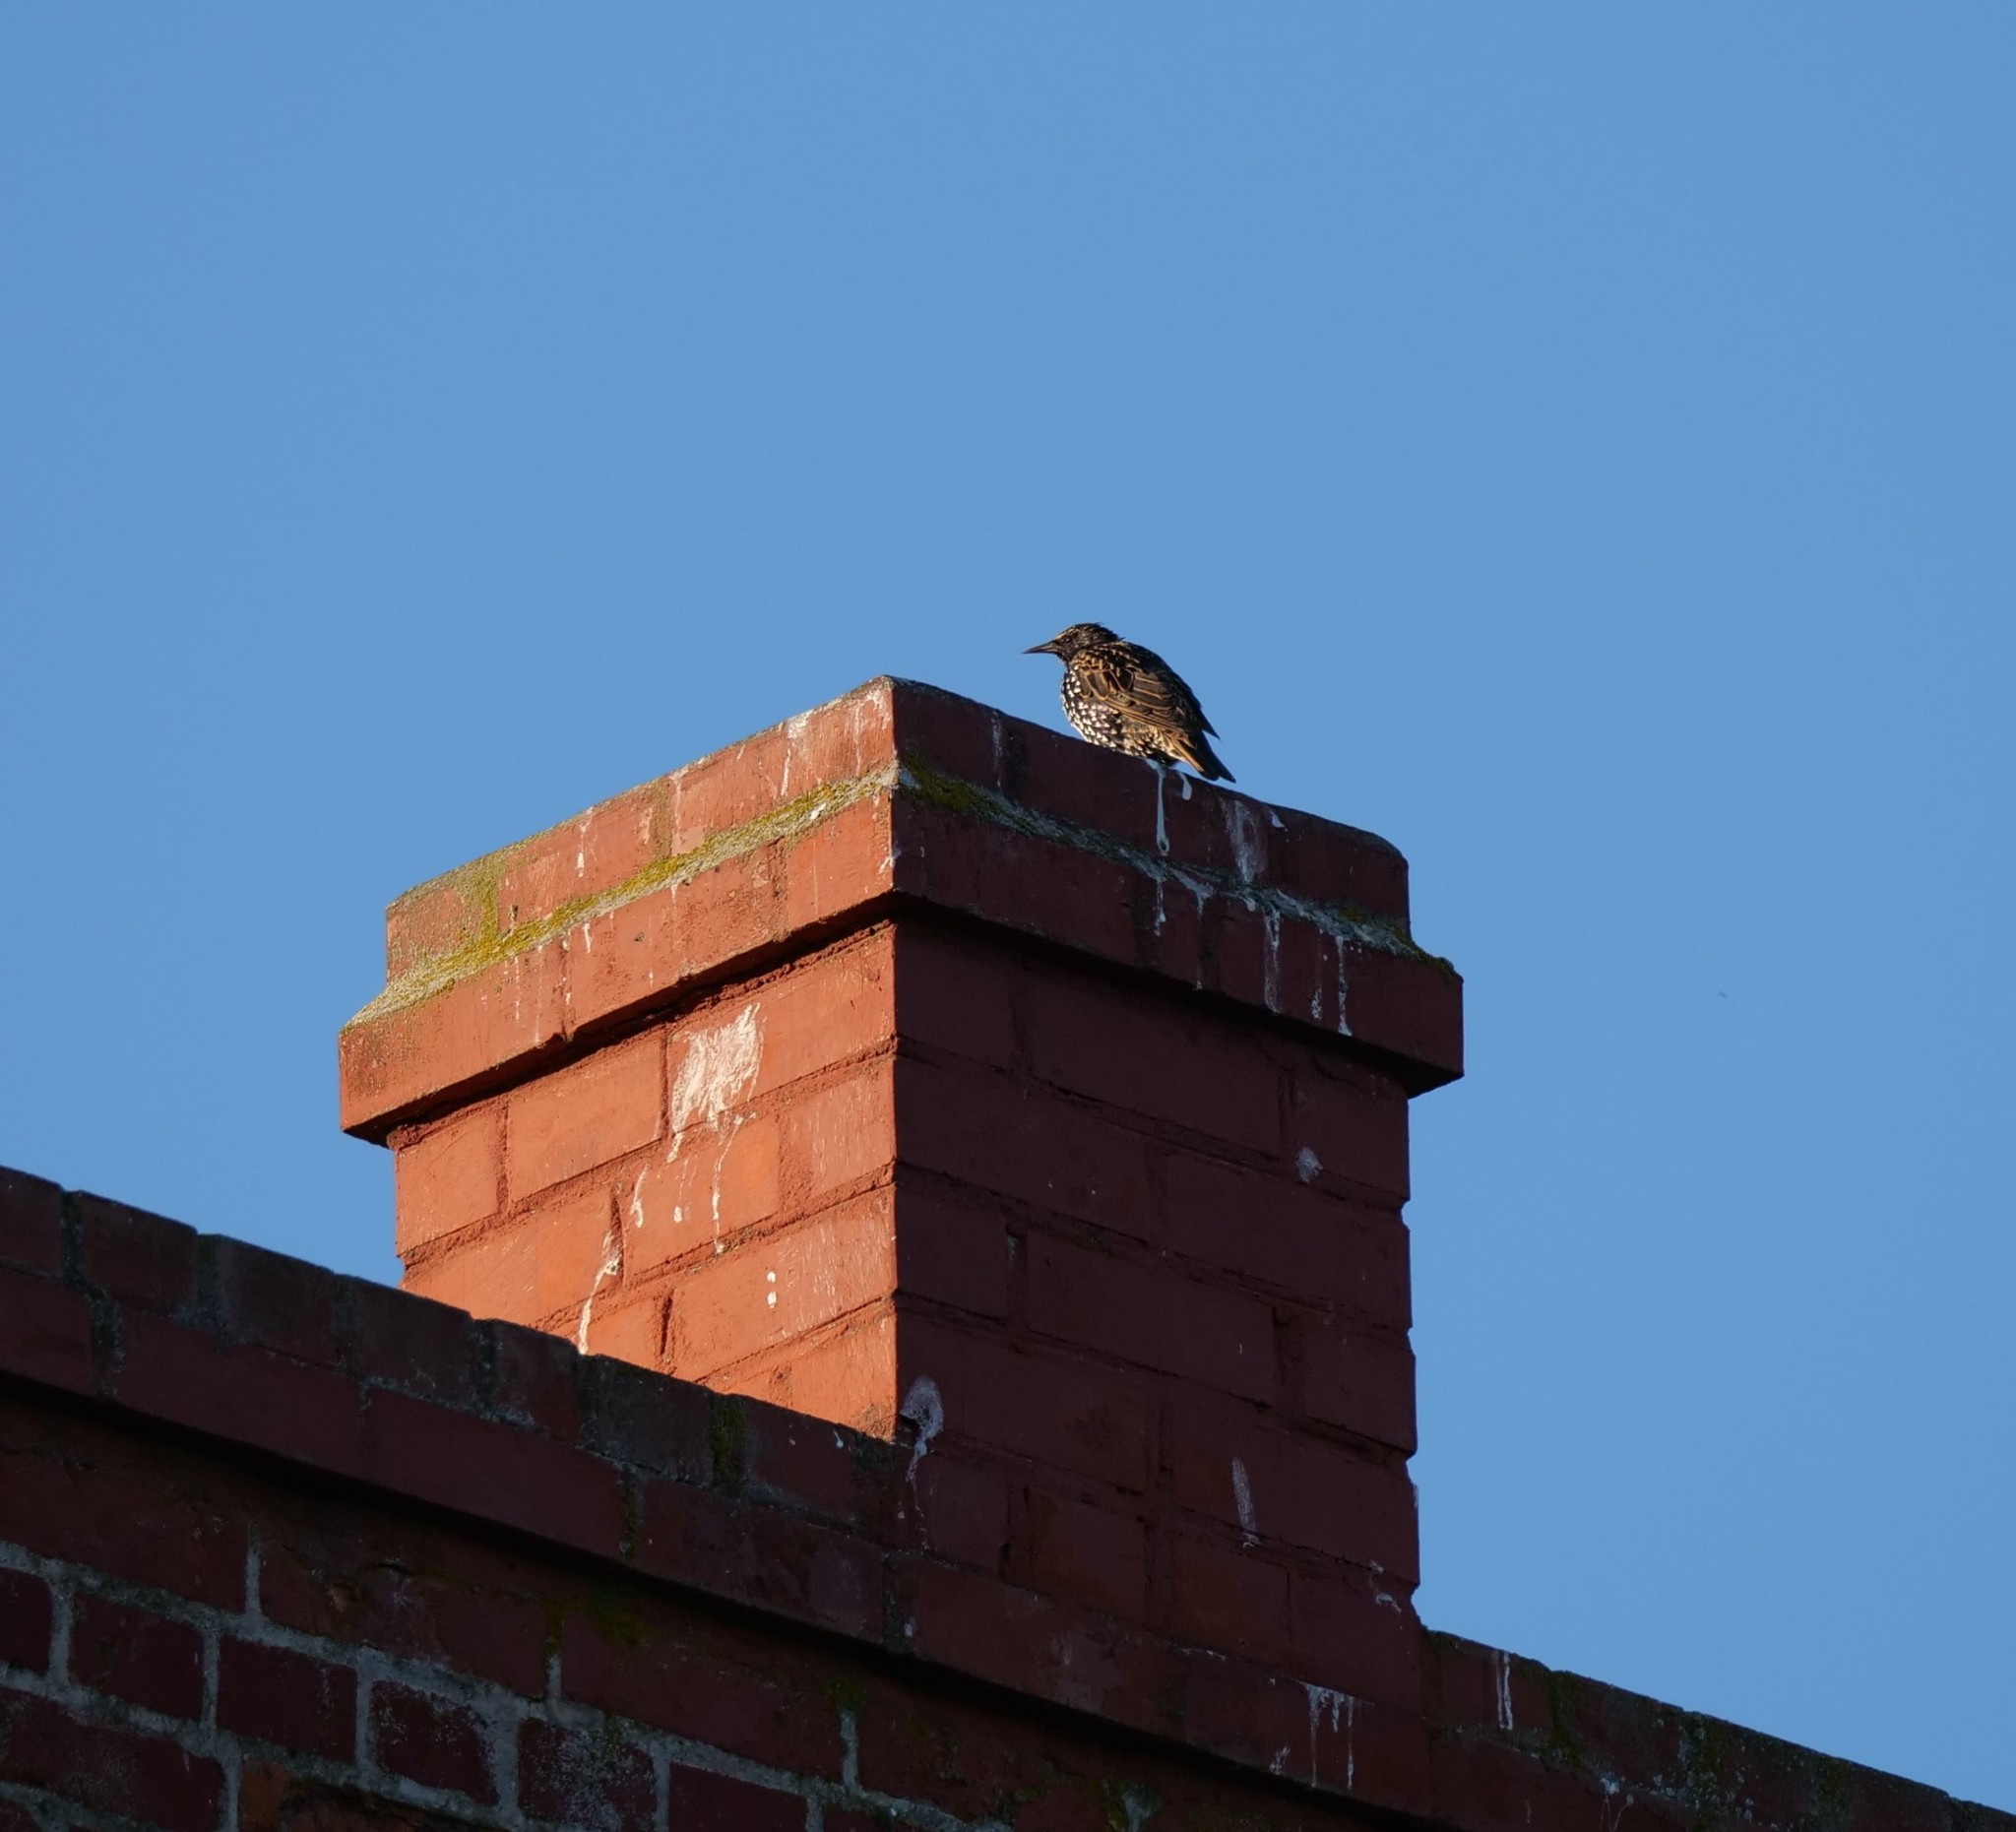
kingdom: Animalia
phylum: Chordata
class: Aves
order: Passeriformes
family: Sturnidae
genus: Sturnus
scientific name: Sturnus vulgaris
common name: Common starling
